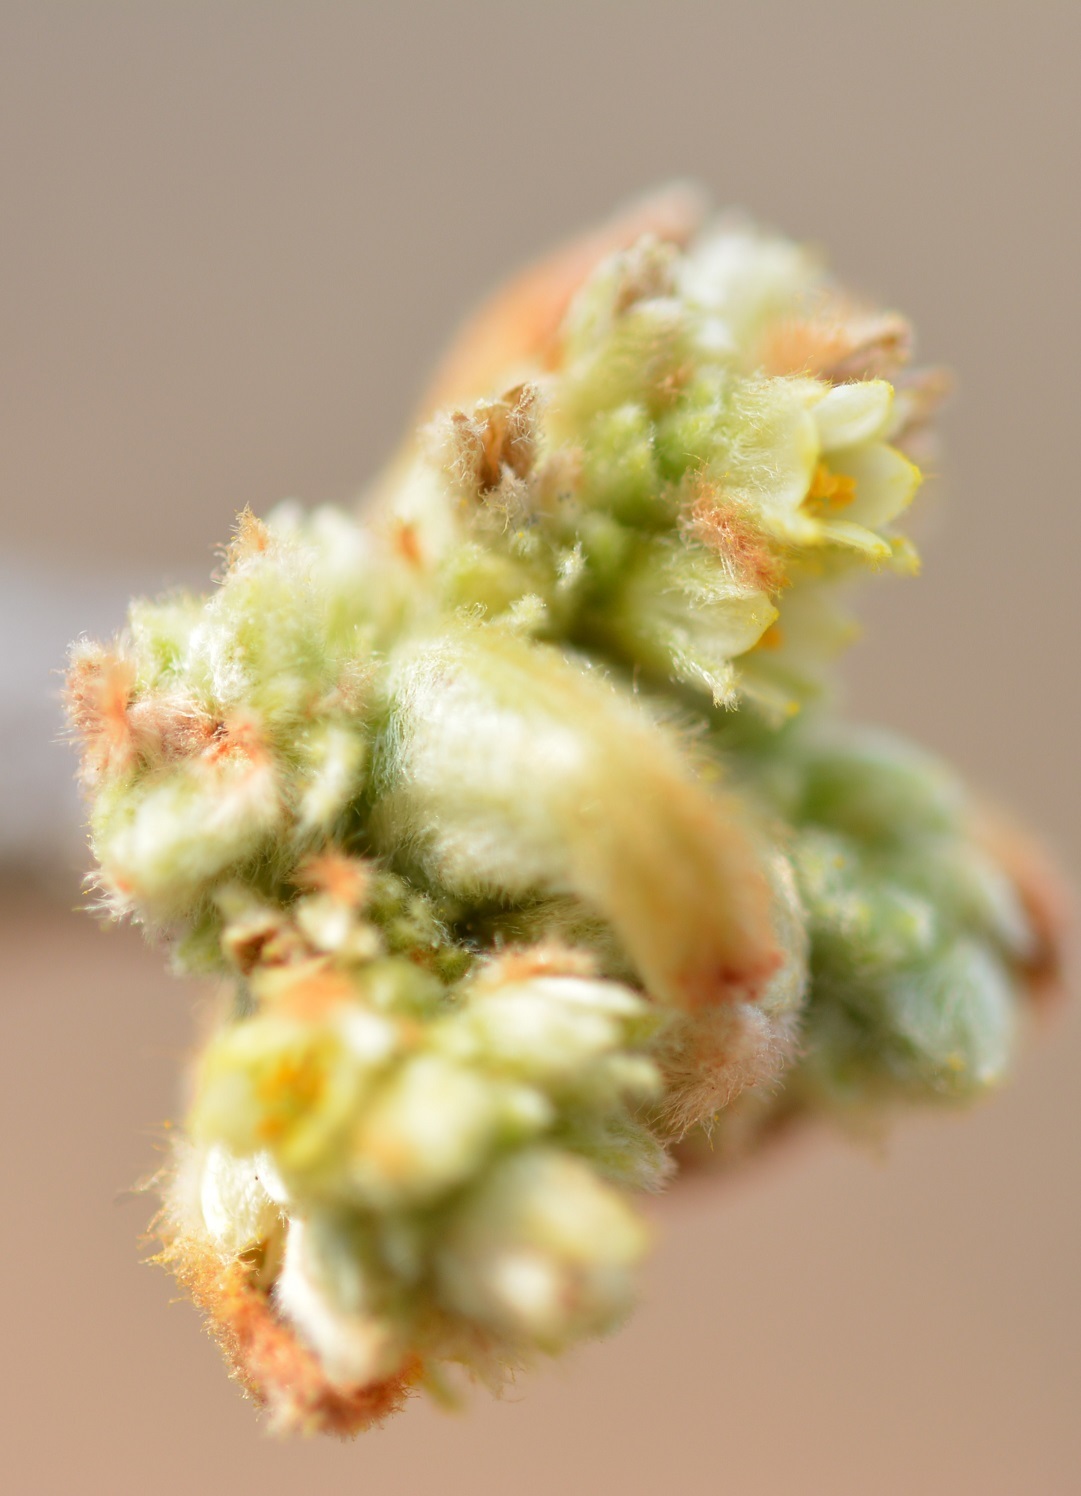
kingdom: Plantae
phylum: Tracheophyta
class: Magnoliopsida
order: Sapindales
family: Burseraceae
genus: Bursera
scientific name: Bursera excelsa
